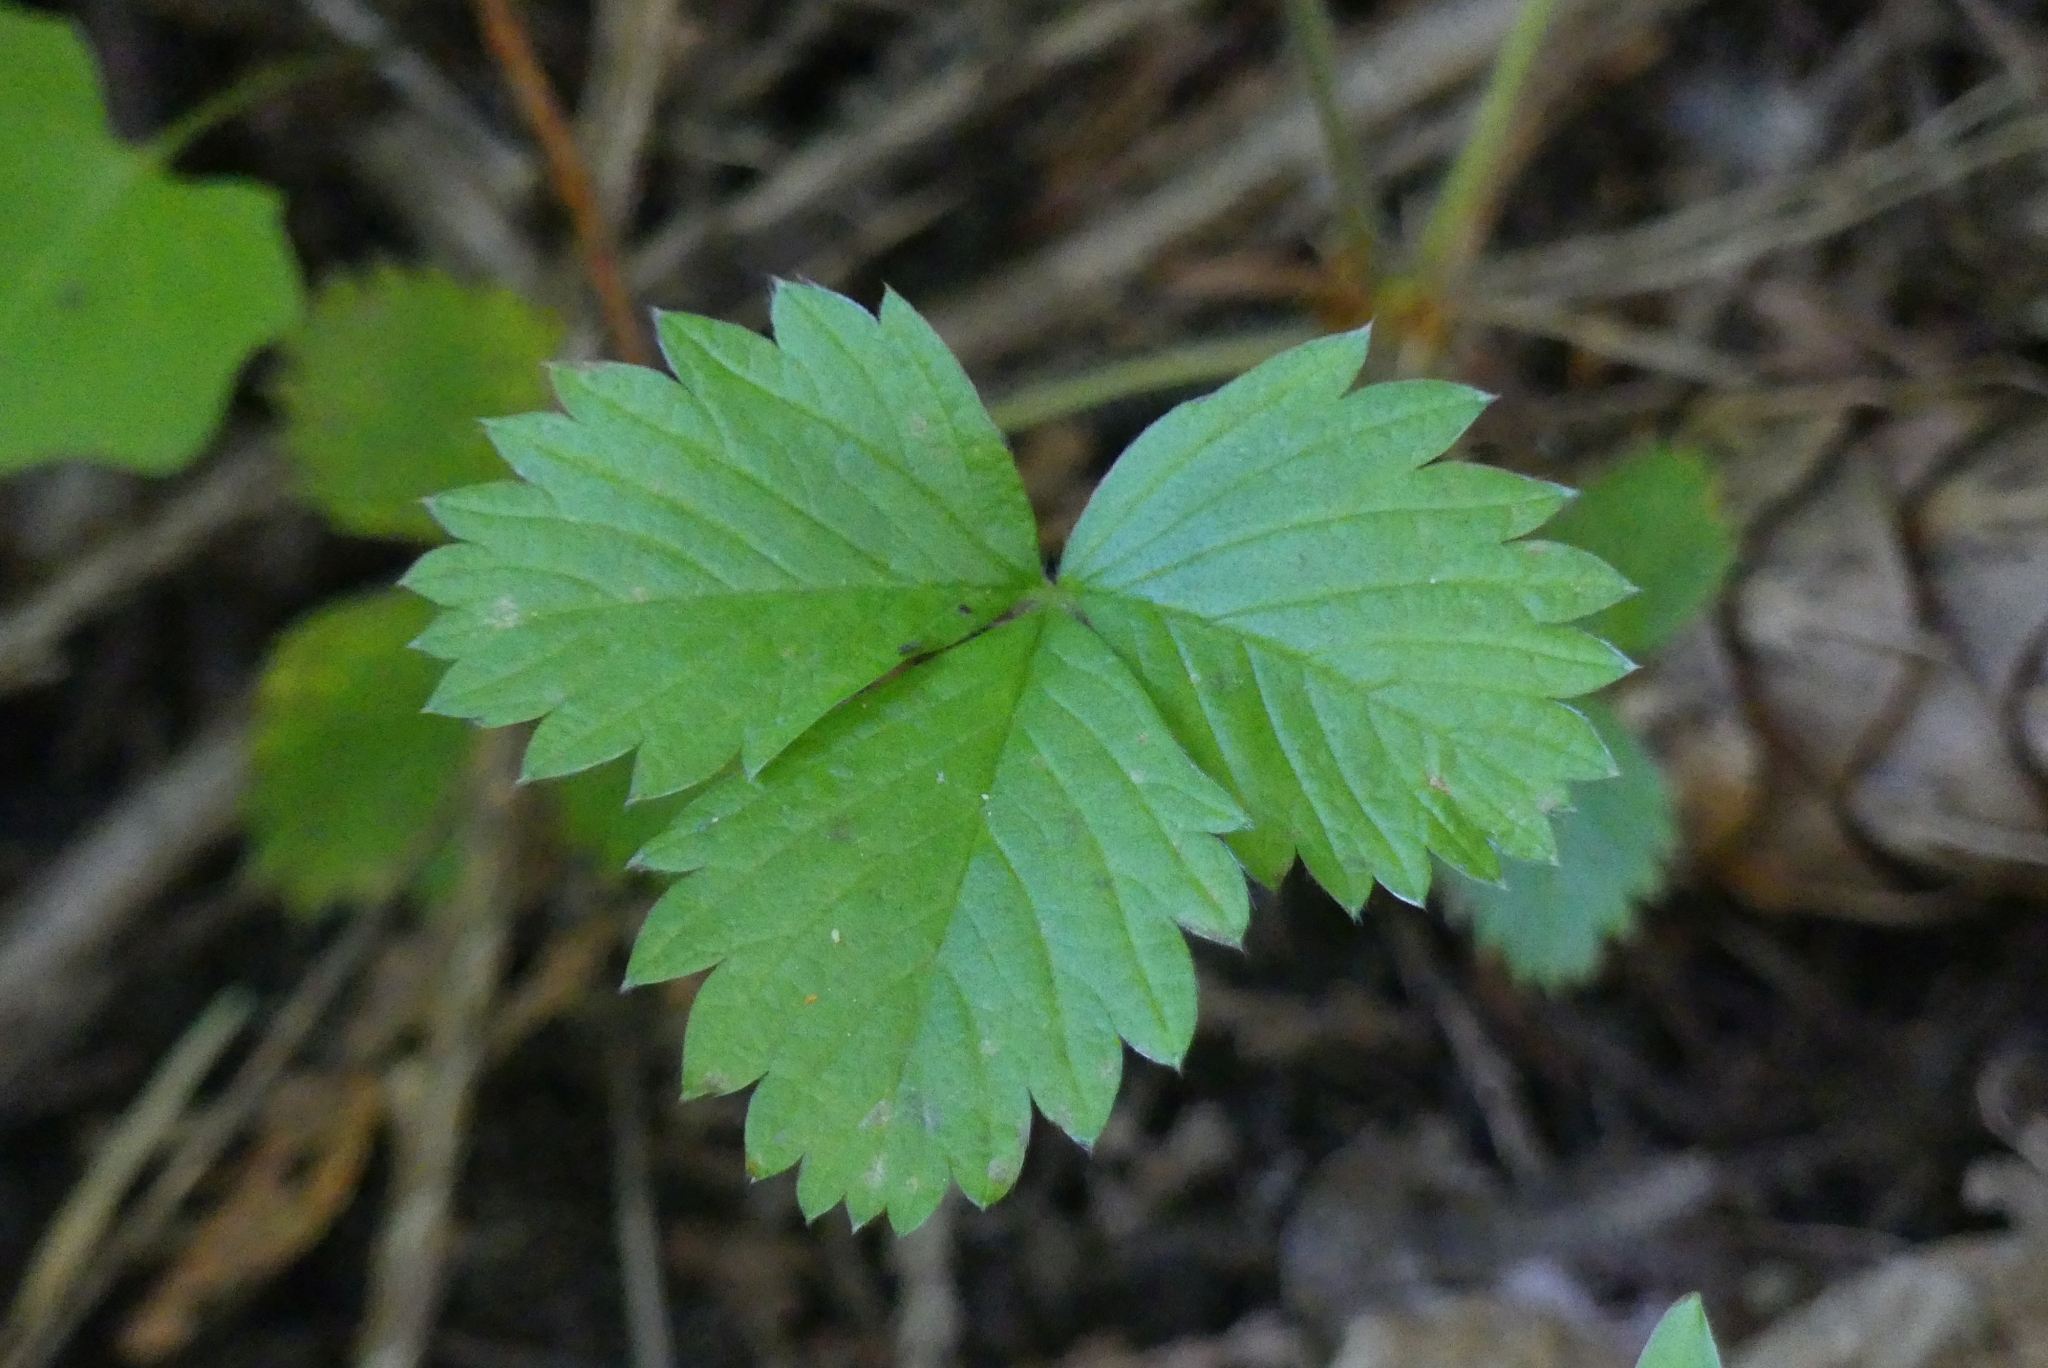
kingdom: Plantae
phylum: Tracheophyta
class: Magnoliopsida
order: Rosales
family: Rosaceae
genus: Fragaria
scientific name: Fragaria virginiana
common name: Thickleaved wild strawberry
